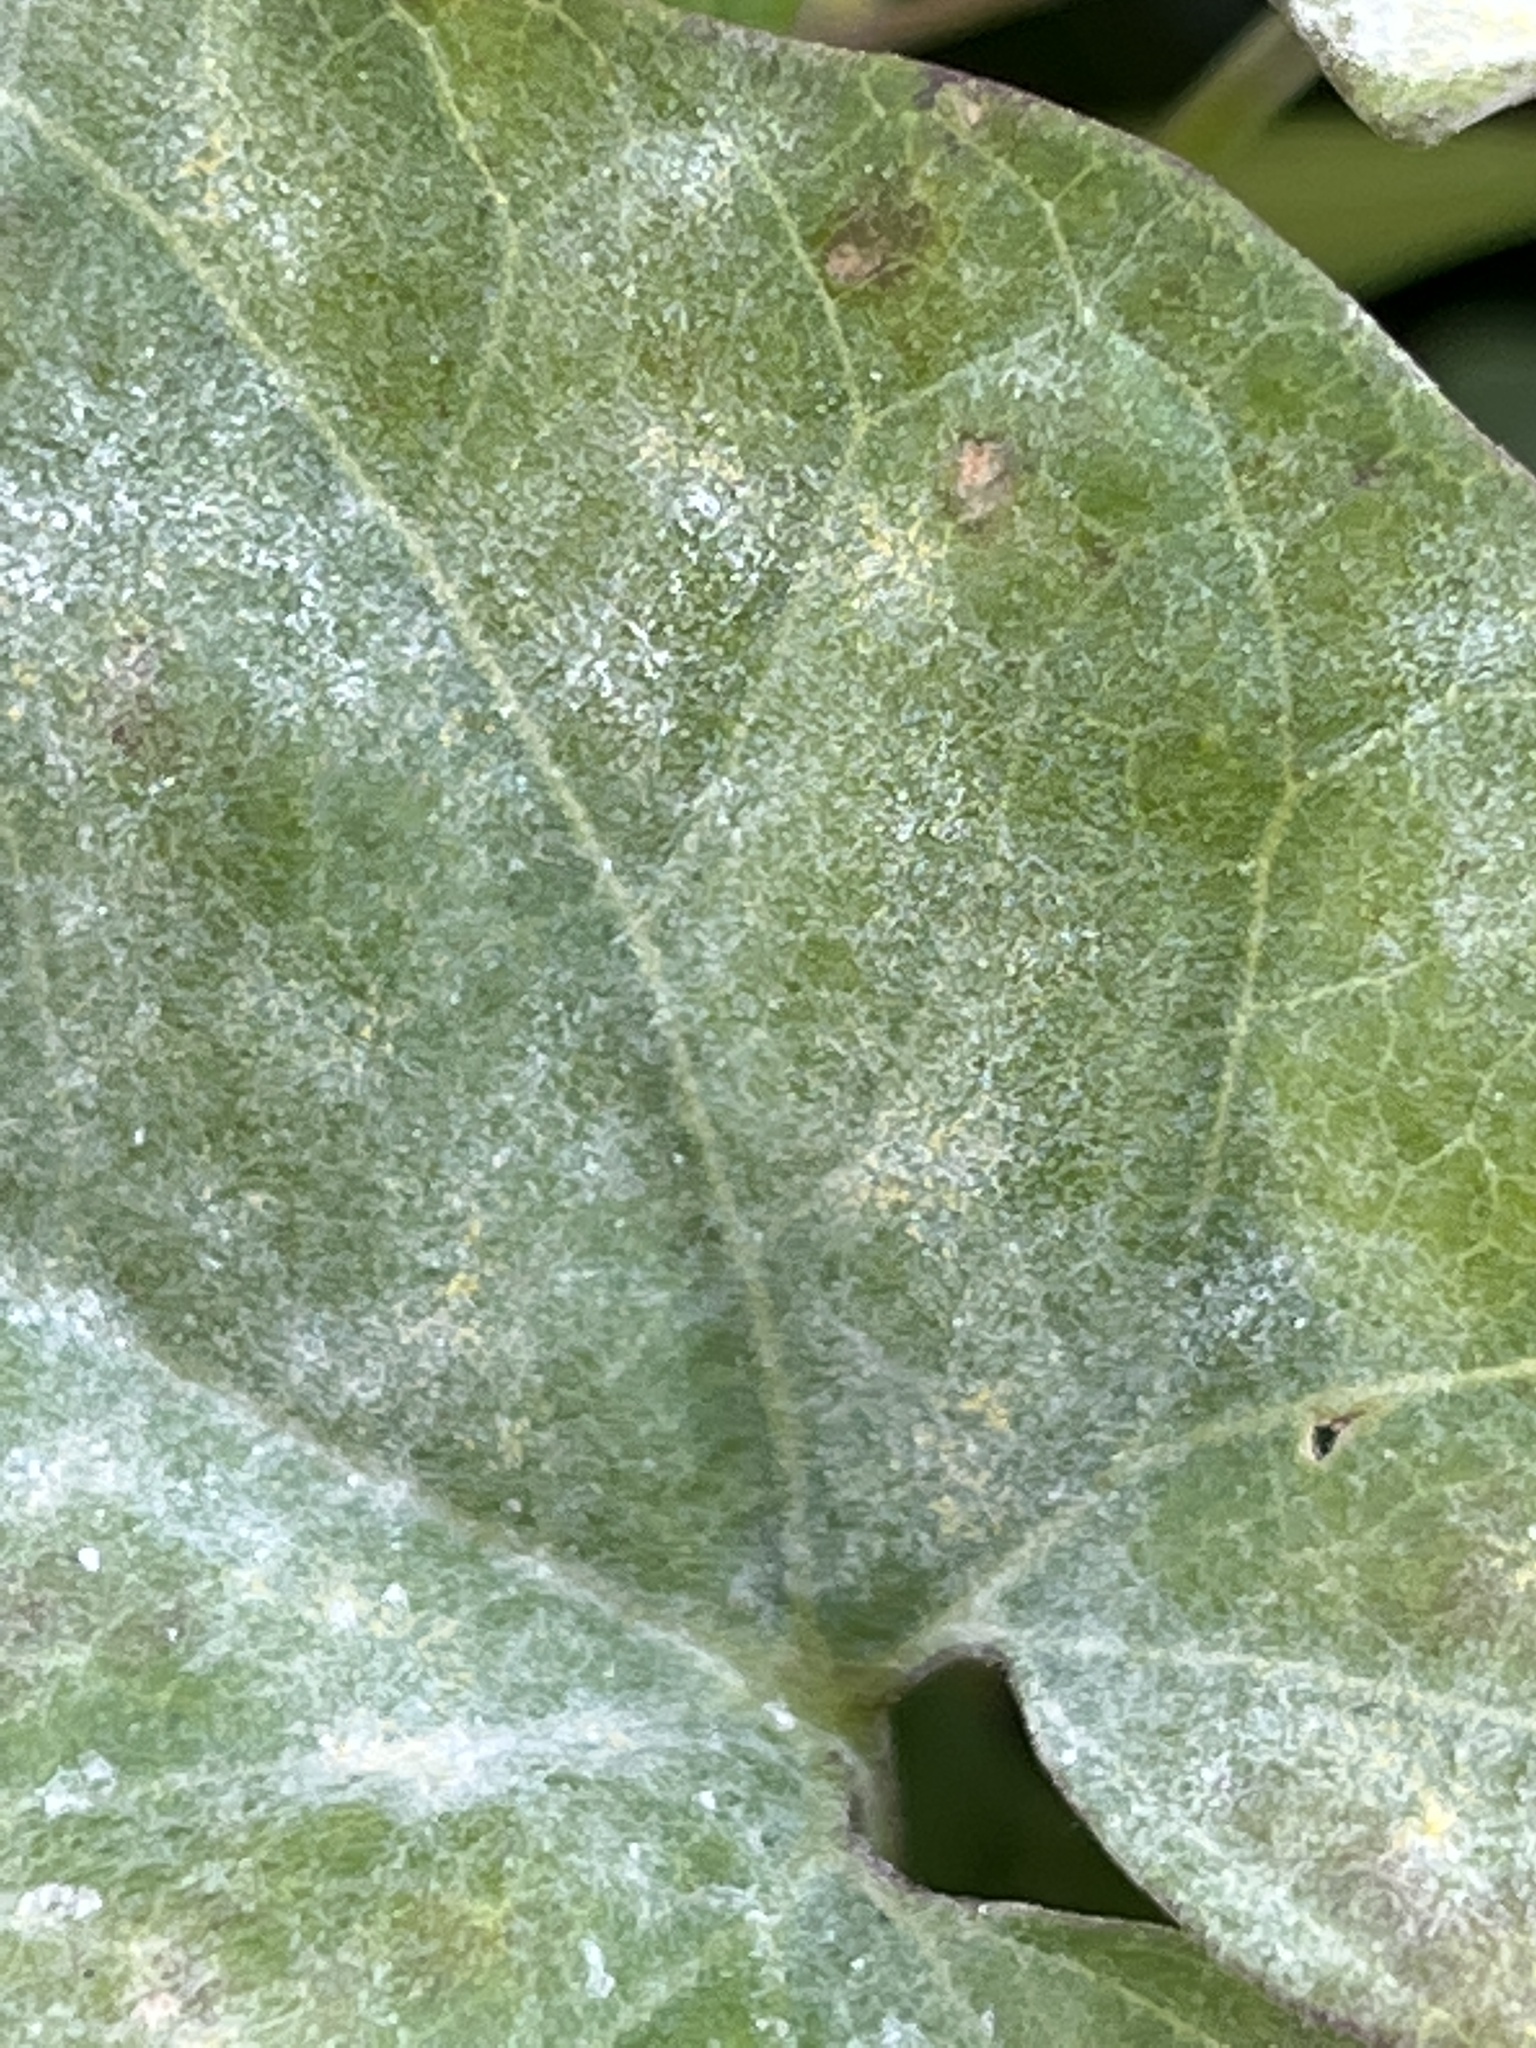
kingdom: Fungi
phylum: Ascomycota
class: Leotiomycetes
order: Helotiales
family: Erysiphaceae
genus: Erysiphe
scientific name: Erysiphe convolvuli
